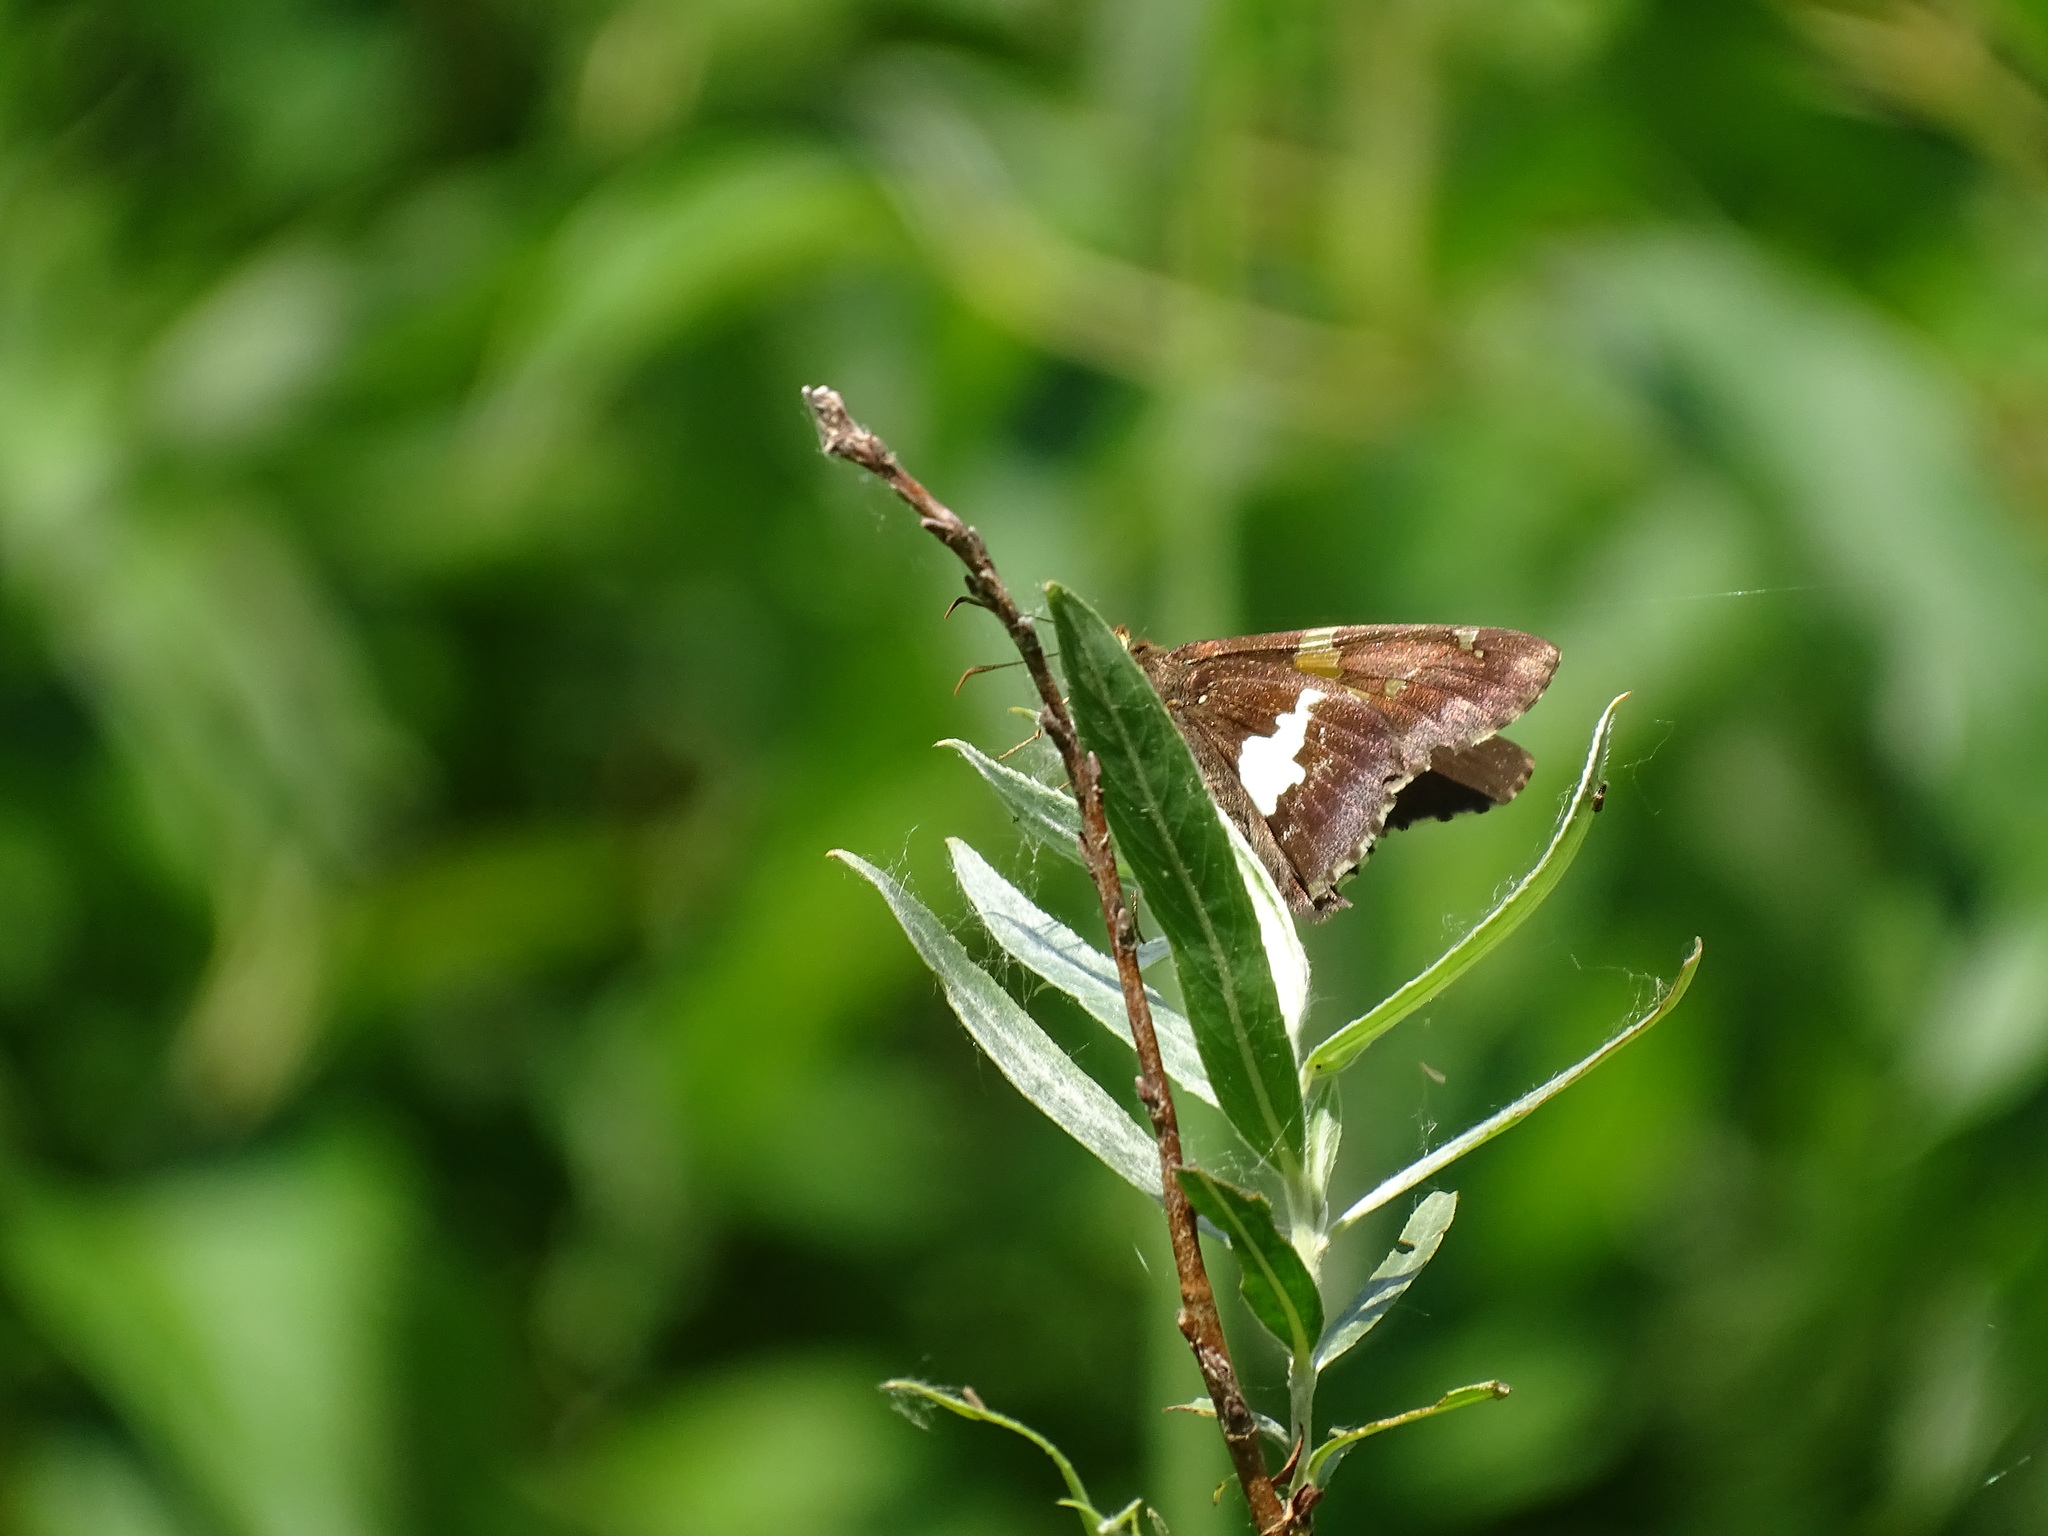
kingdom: Animalia
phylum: Arthropoda
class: Insecta
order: Lepidoptera
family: Hesperiidae
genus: Epargyreus
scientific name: Epargyreus clarus
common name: Silver-spotted skipper
